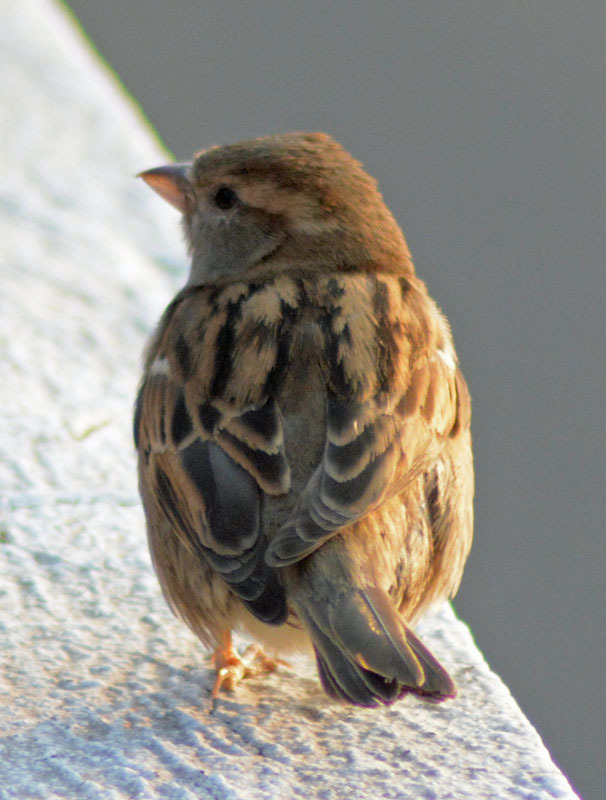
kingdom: Animalia
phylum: Chordata
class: Aves
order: Passeriformes
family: Passeridae
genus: Passer
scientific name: Passer domesticus
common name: House sparrow
